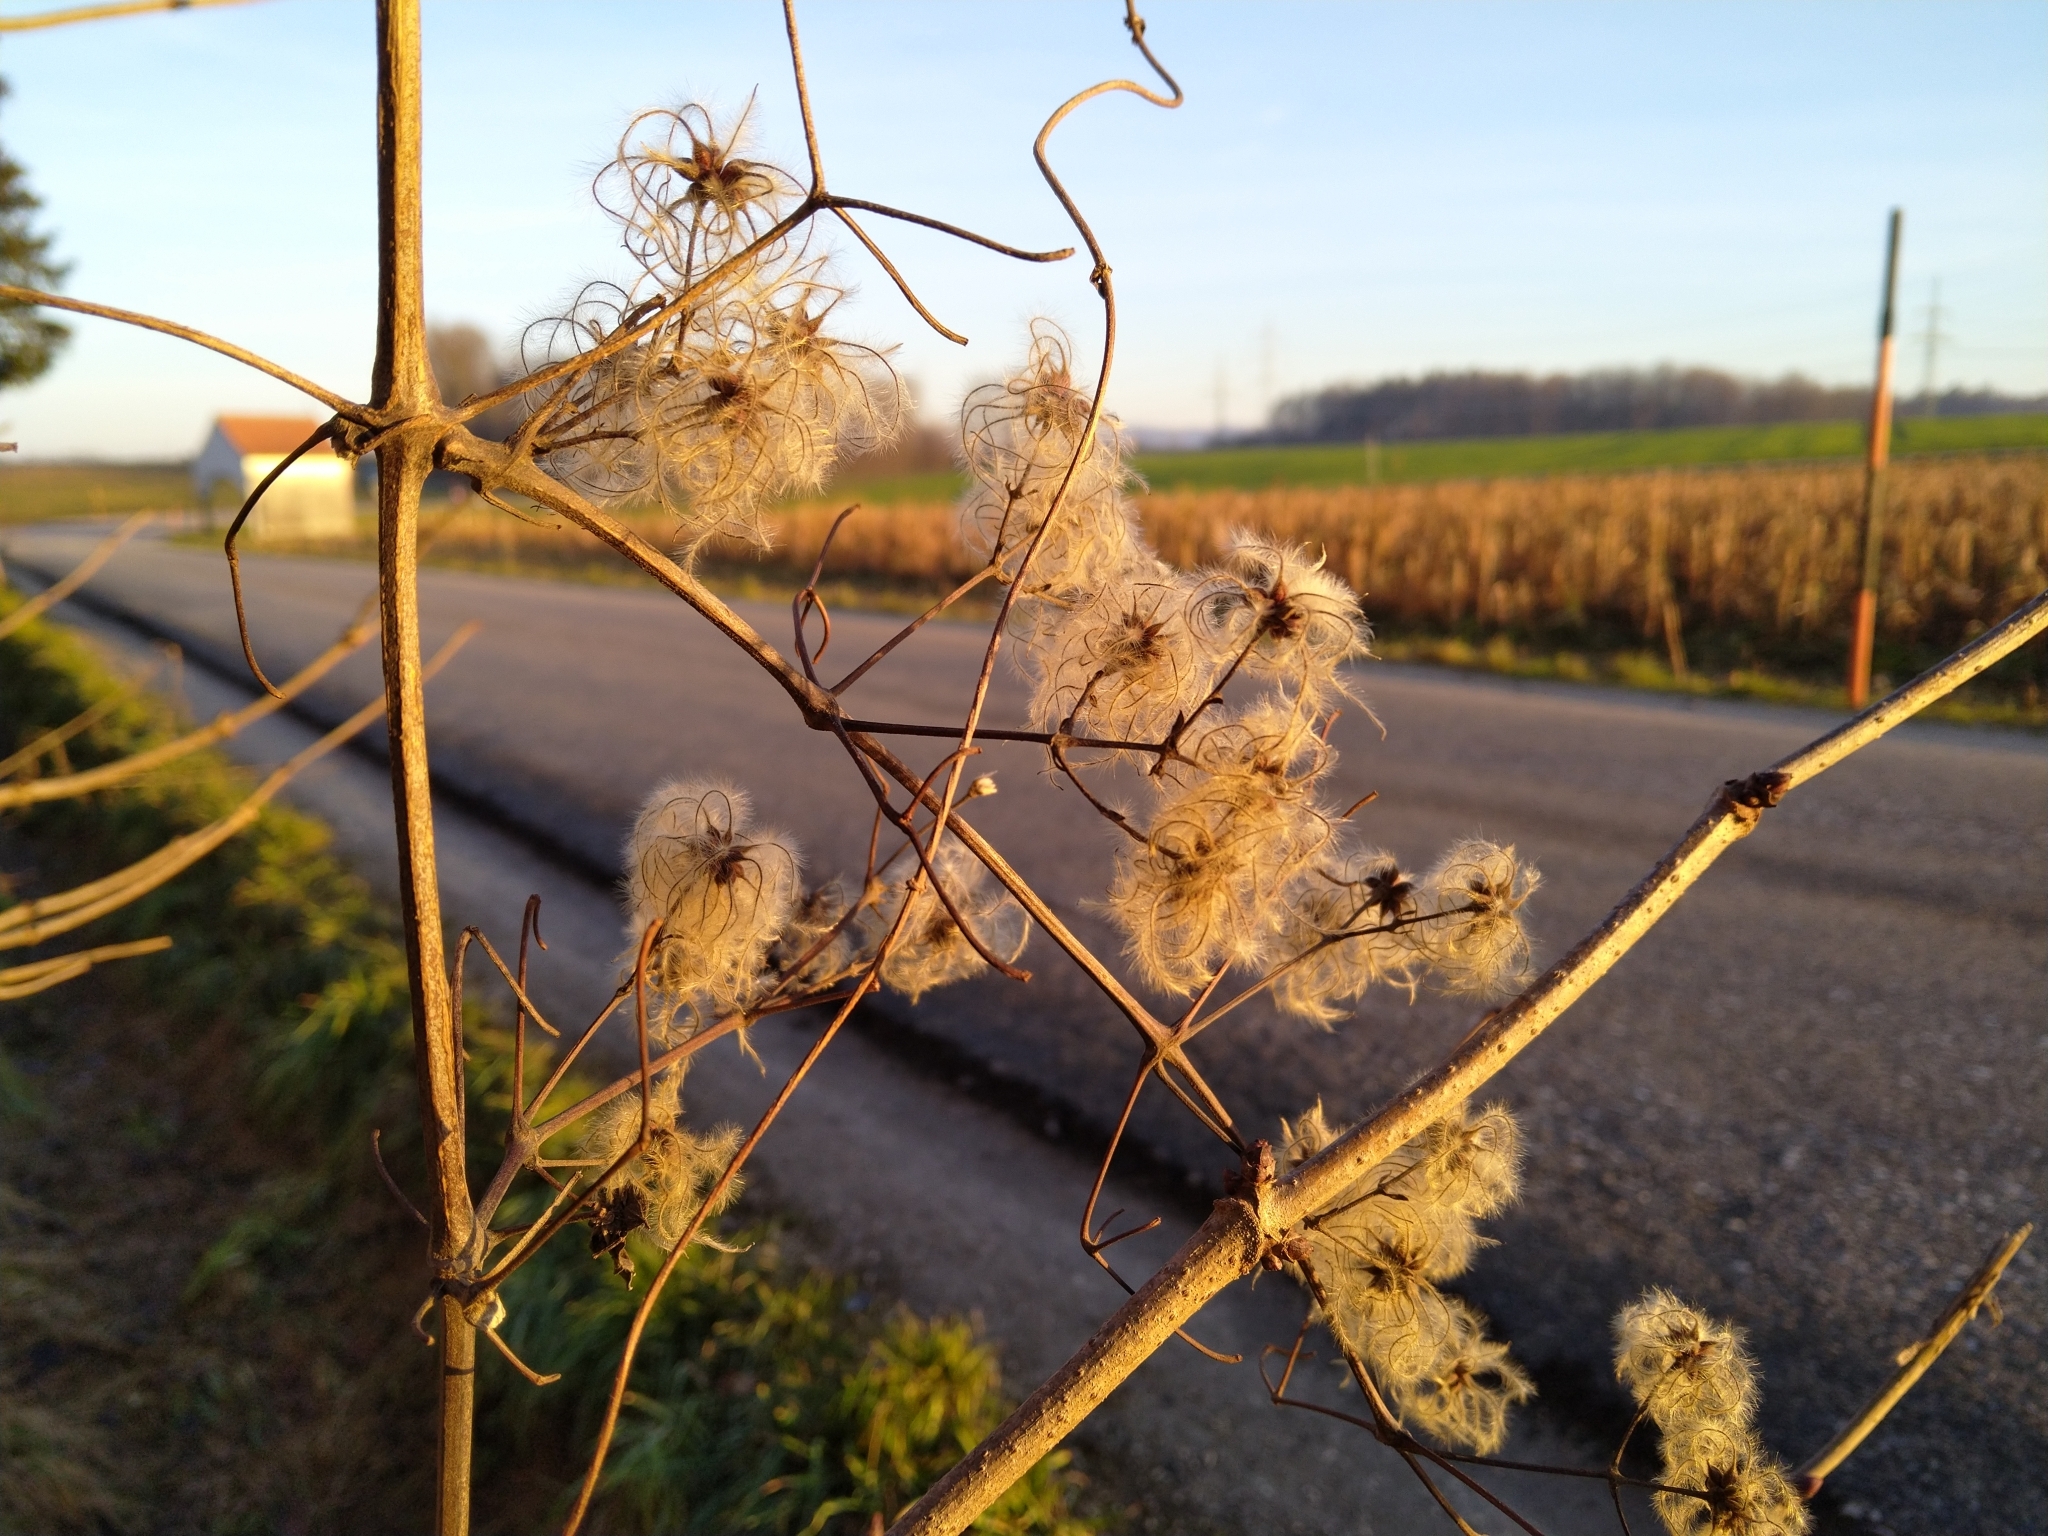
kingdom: Plantae
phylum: Tracheophyta
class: Magnoliopsida
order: Ranunculales
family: Ranunculaceae
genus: Clematis
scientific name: Clematis vitalba
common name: Evergreen clematis
